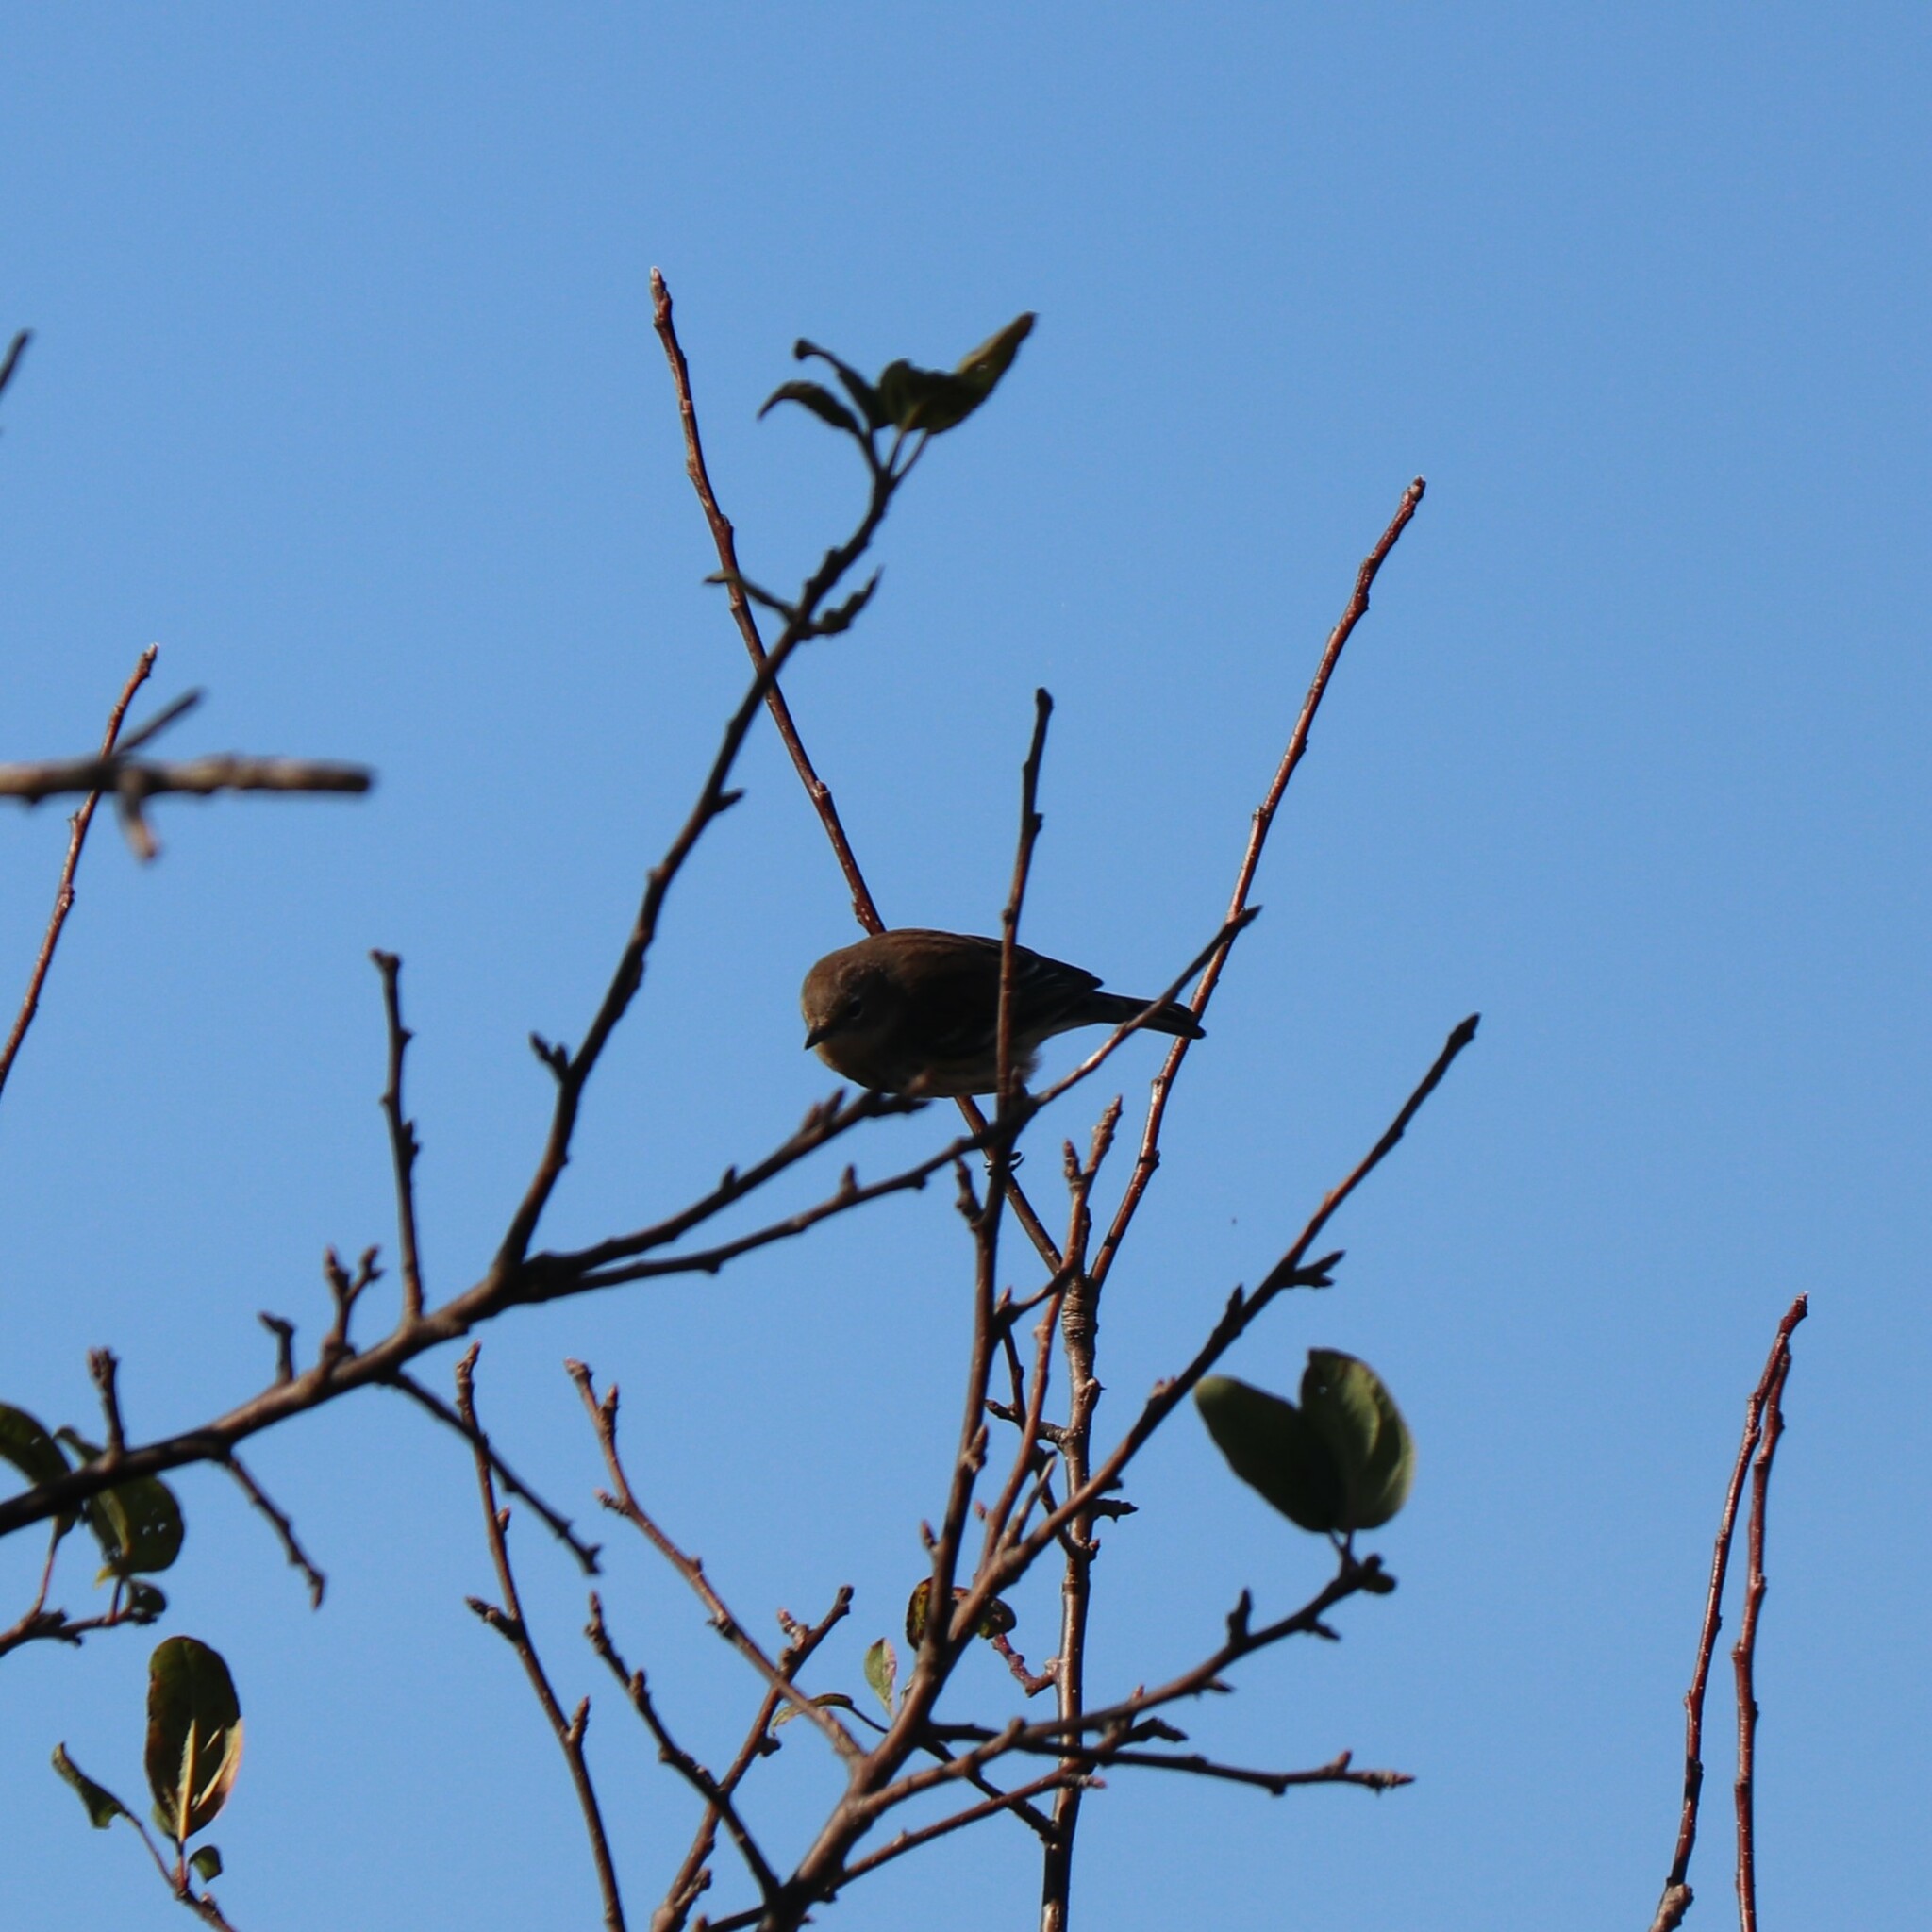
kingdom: Animalia
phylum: Chordata
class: Aves
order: Passeriformes
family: Parulidae
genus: Setophaga
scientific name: Setophaga coronata
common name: Myrtle warbler
